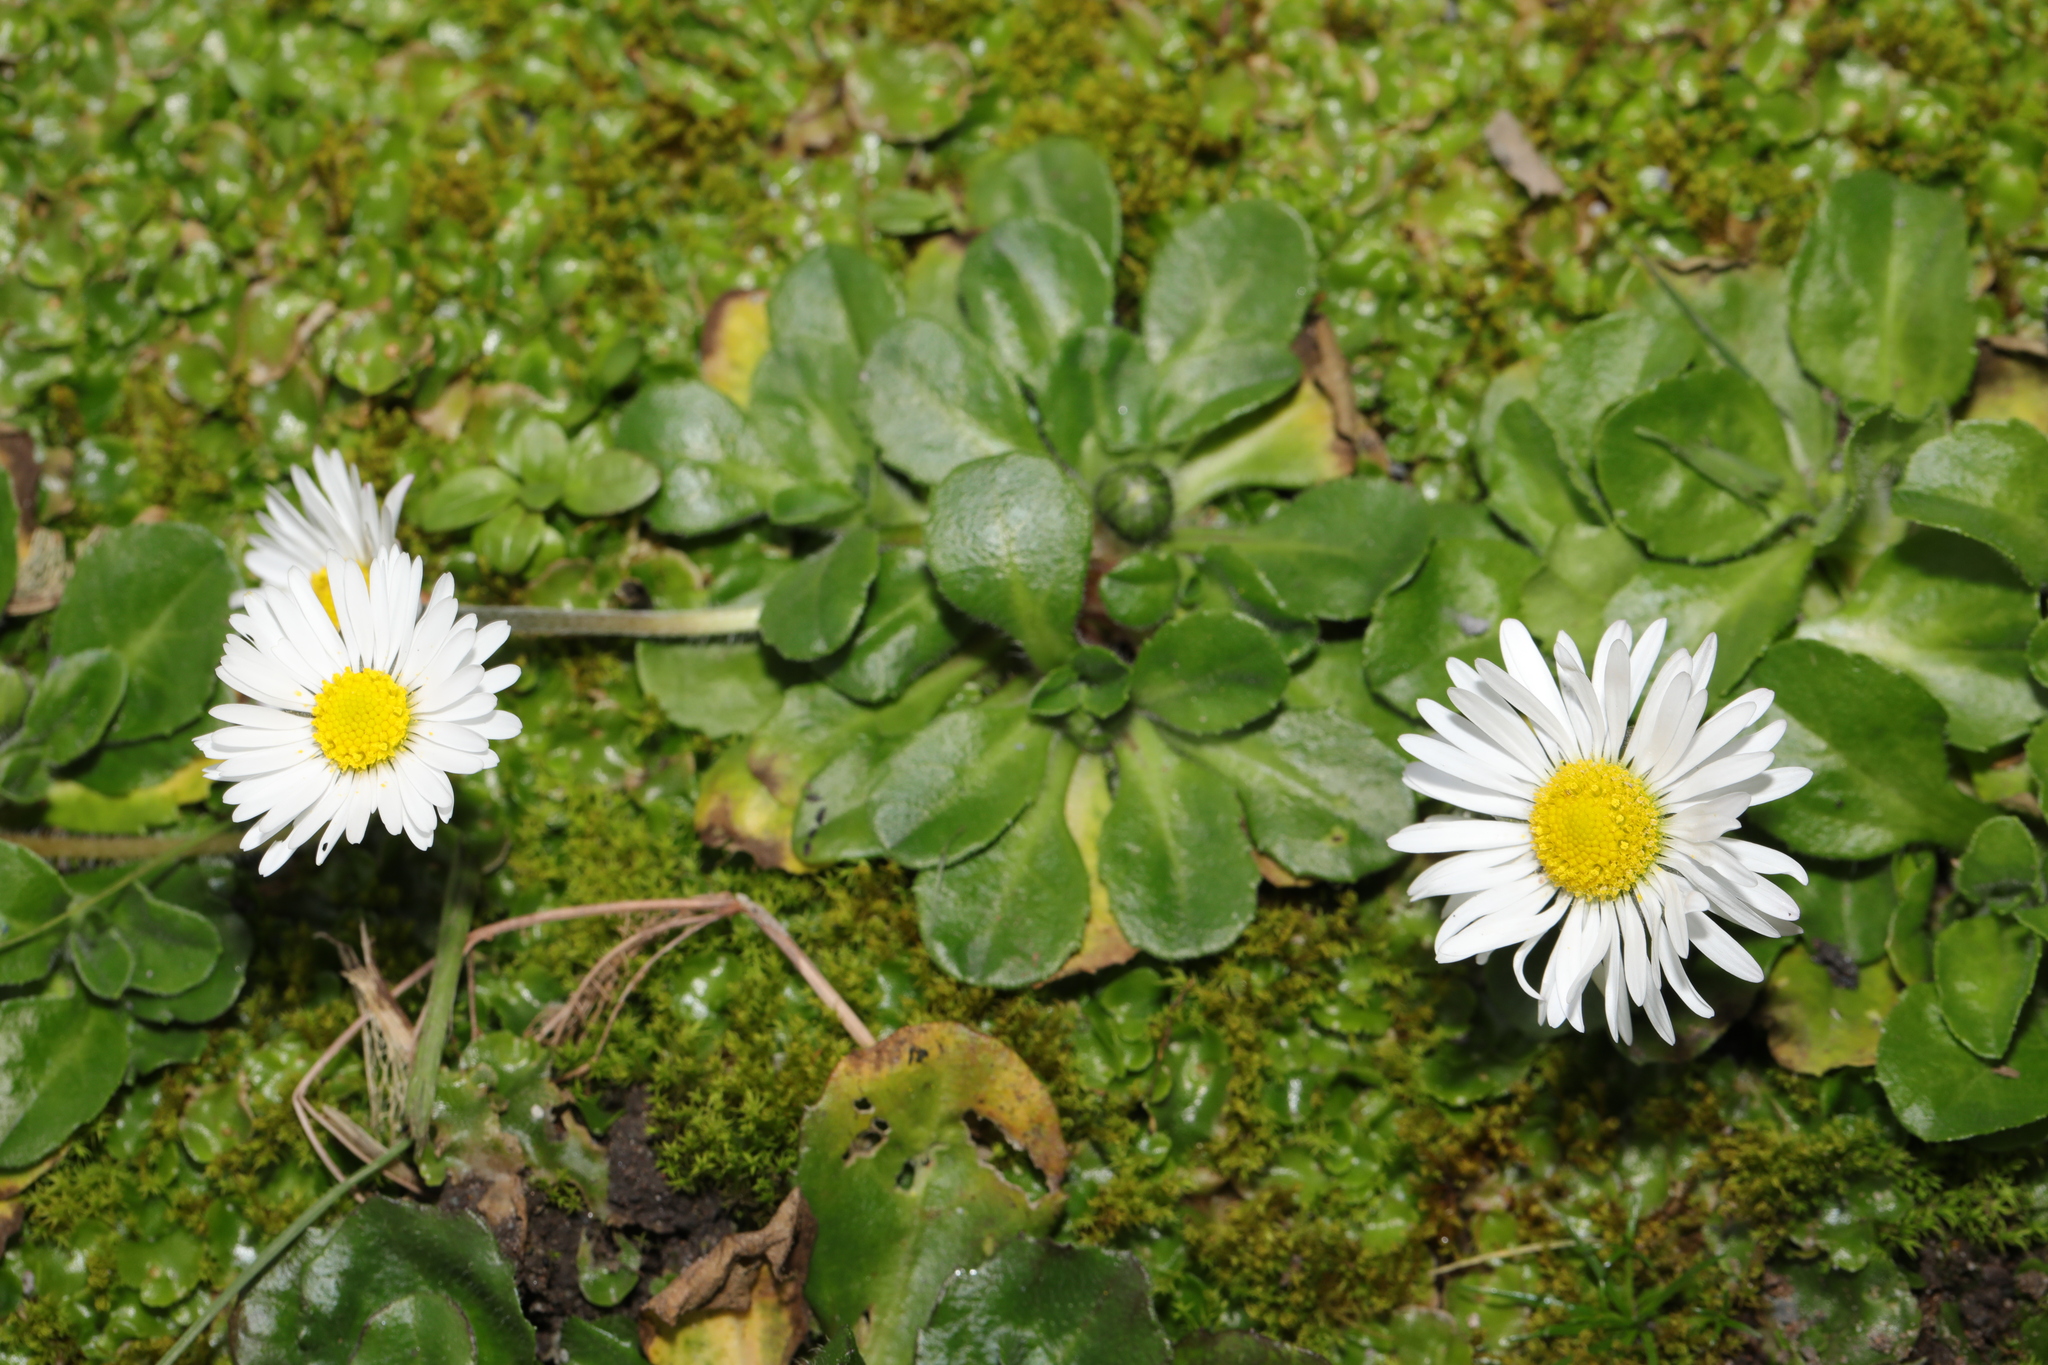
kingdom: Plantae
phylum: Tracheophyta
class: Magnoliopsida
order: Asterales
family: Asteraceae
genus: Bellis
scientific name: Bellis perennis
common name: Lawndaisy
